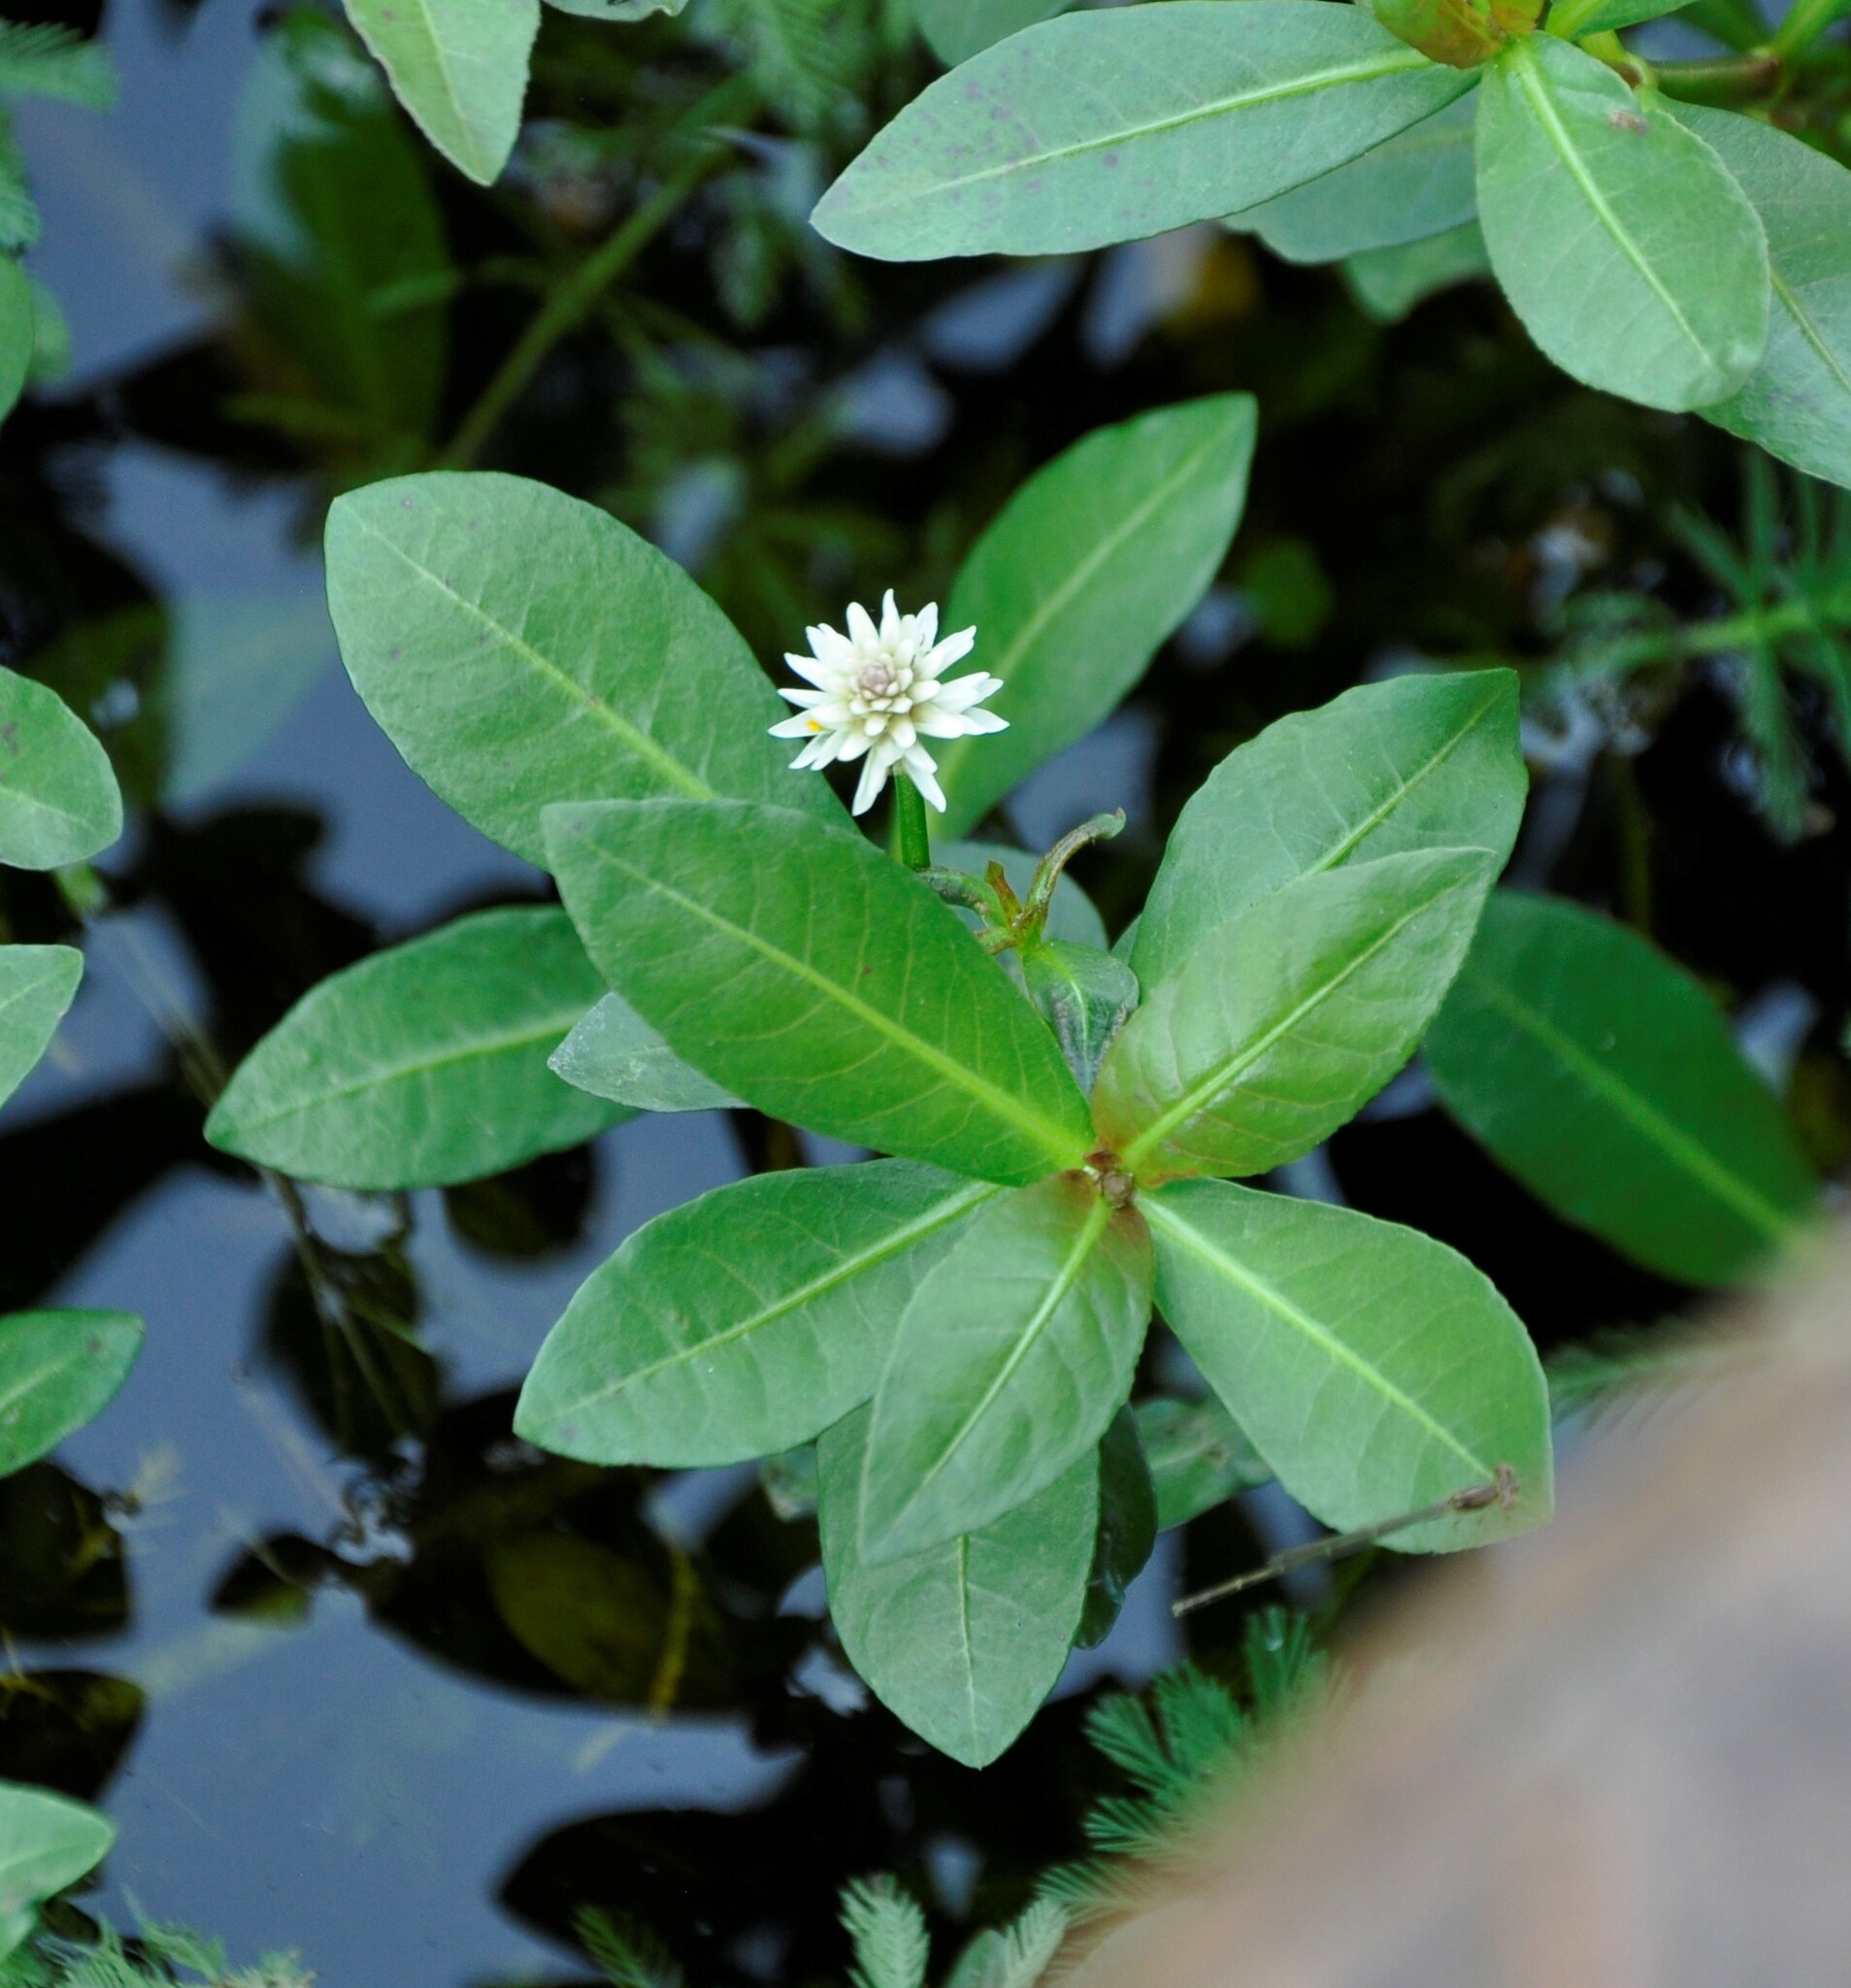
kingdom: Plantae
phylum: Tracheophyta
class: Magnoliopsida
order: Caryophyllales
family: Amaranthaceae
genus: Alternanthera
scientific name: Alternanthera philoxeroides
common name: Alligatorweed
